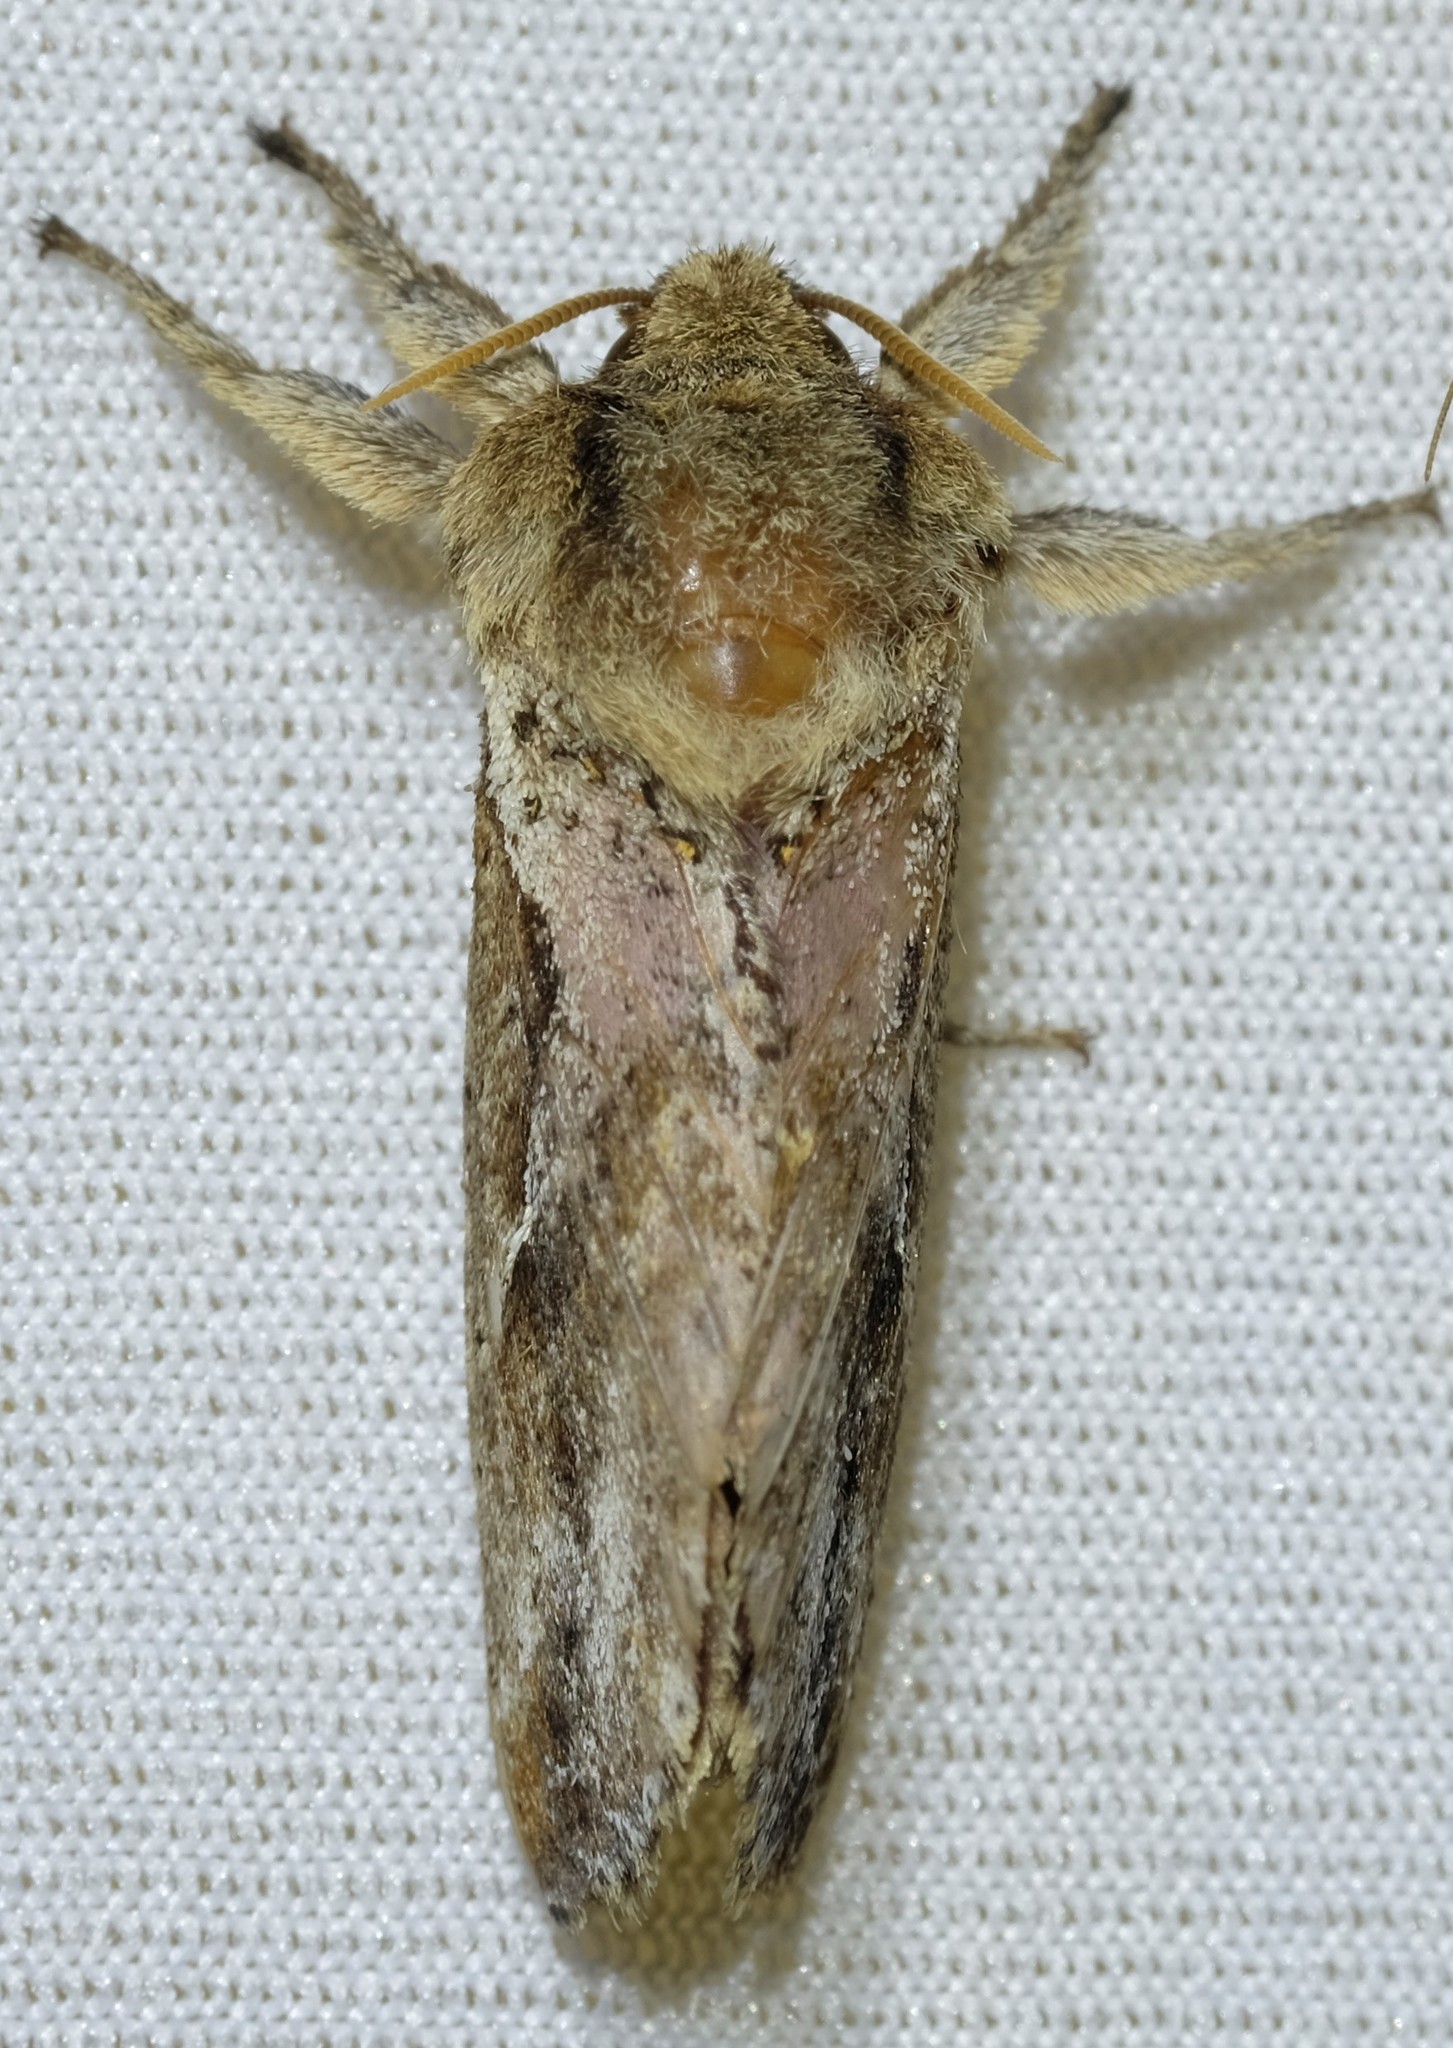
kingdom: Animalia
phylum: Arthropoda
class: Insecta
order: Lepidoptera
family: Hepialidae
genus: Elhamma
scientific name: Elhamma australasiae
